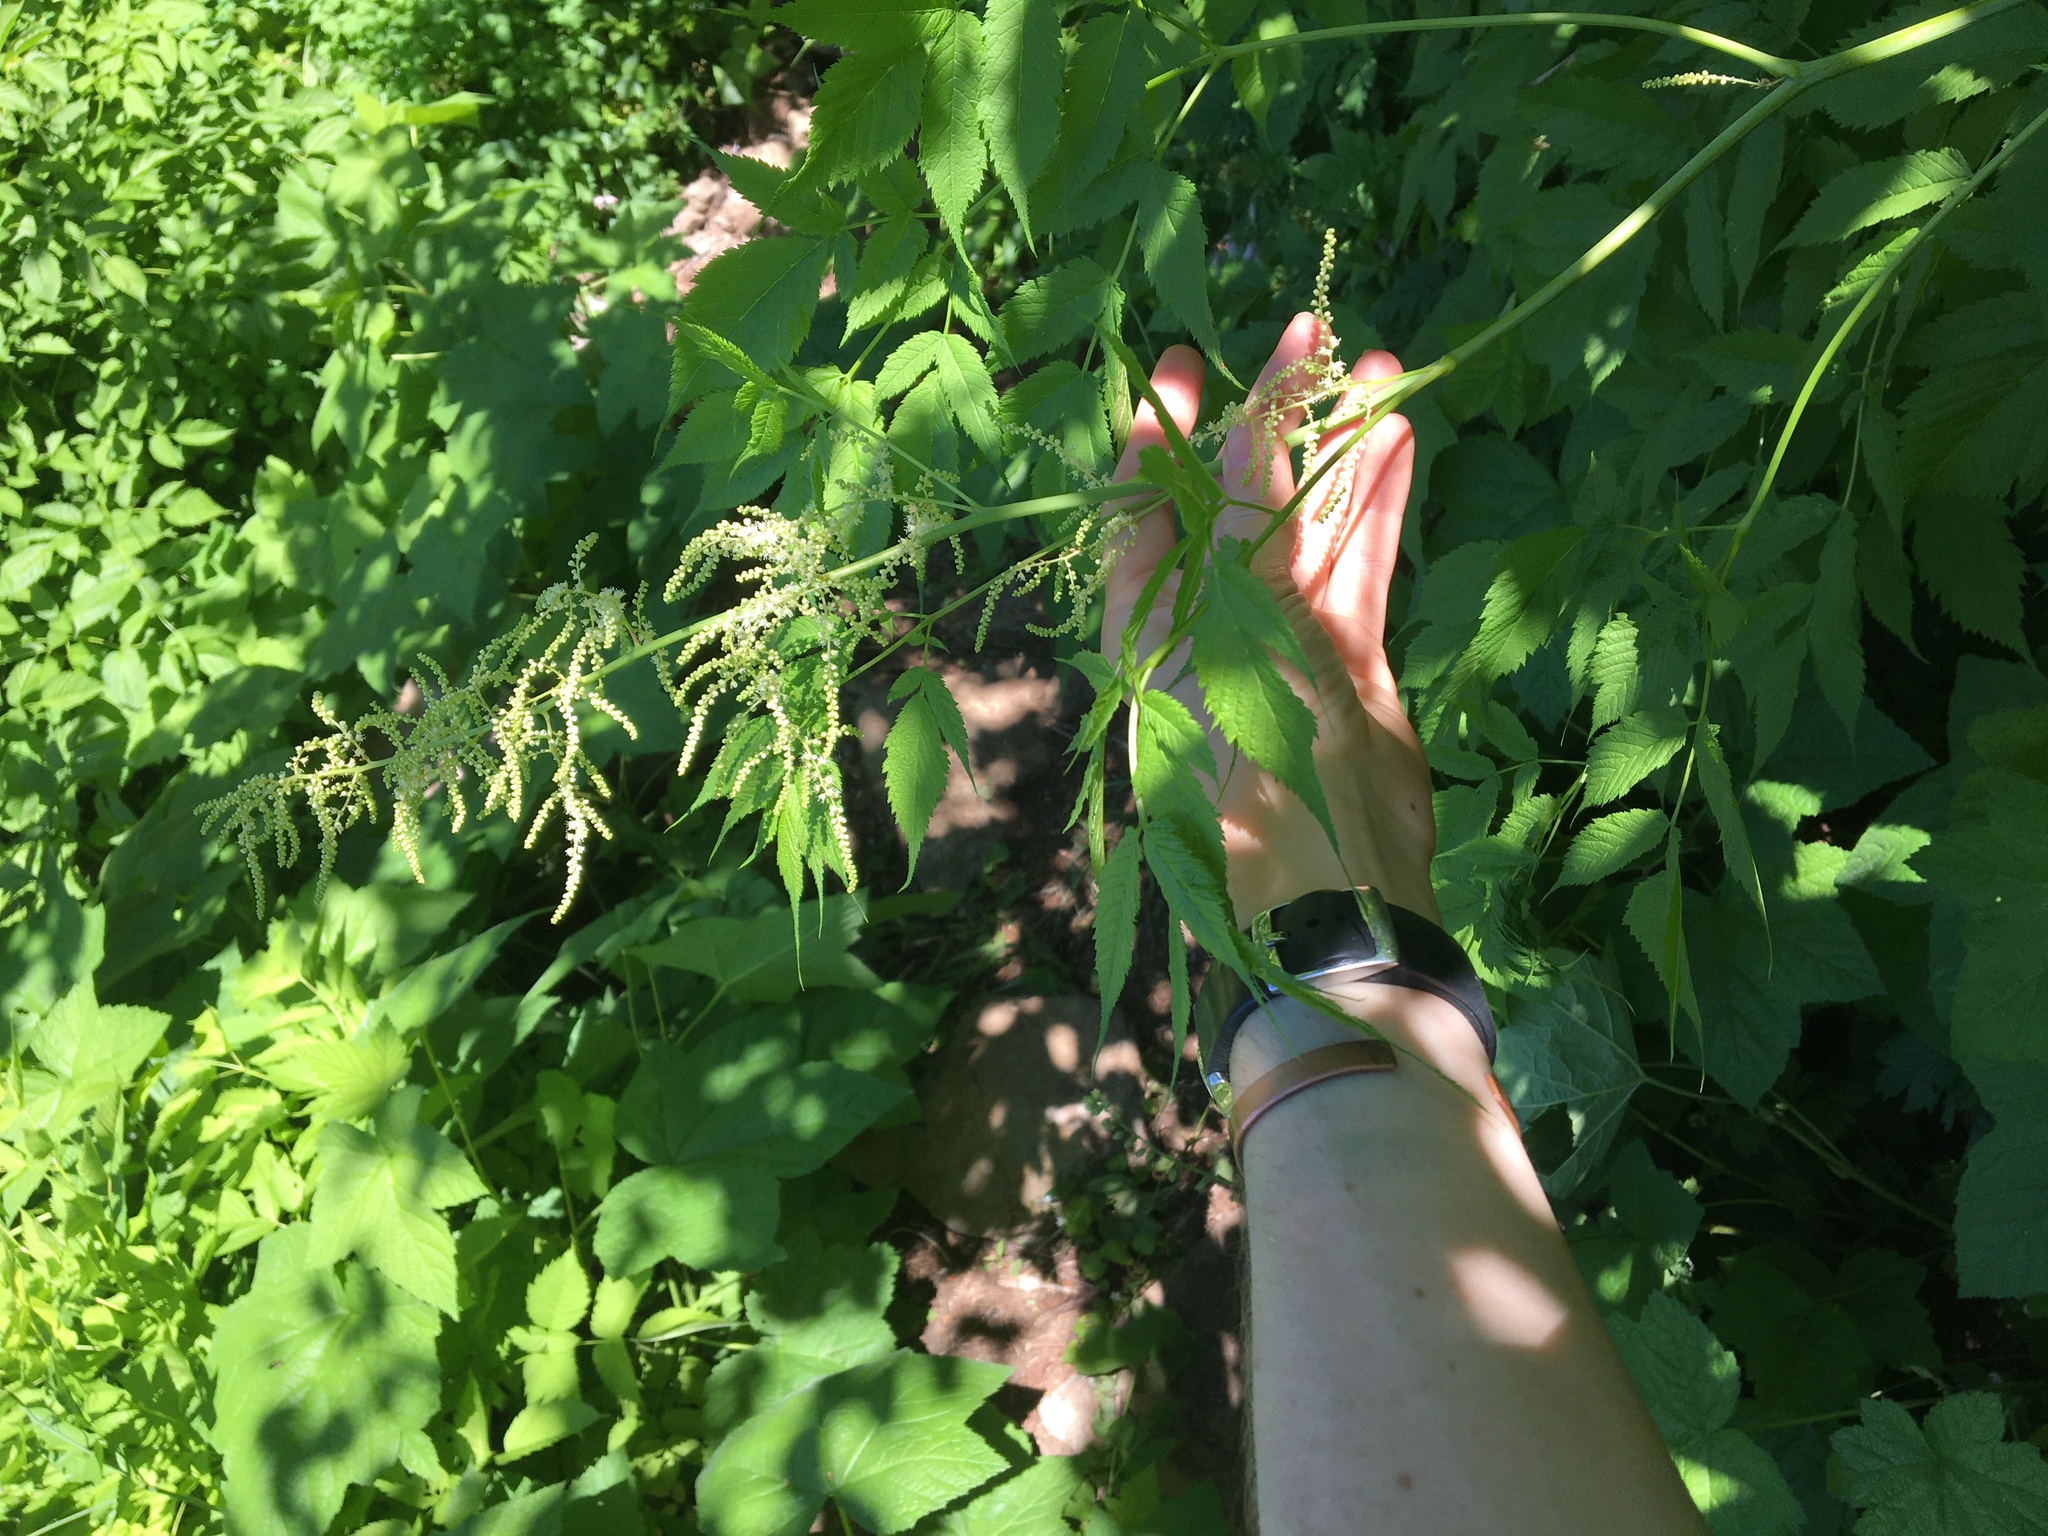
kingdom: Plantae
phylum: Tracheophyta
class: Magnoliopsida
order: Rosales
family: Rosaceae
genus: Aruncus
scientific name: Aruncus dioicus
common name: Buck's-beard
